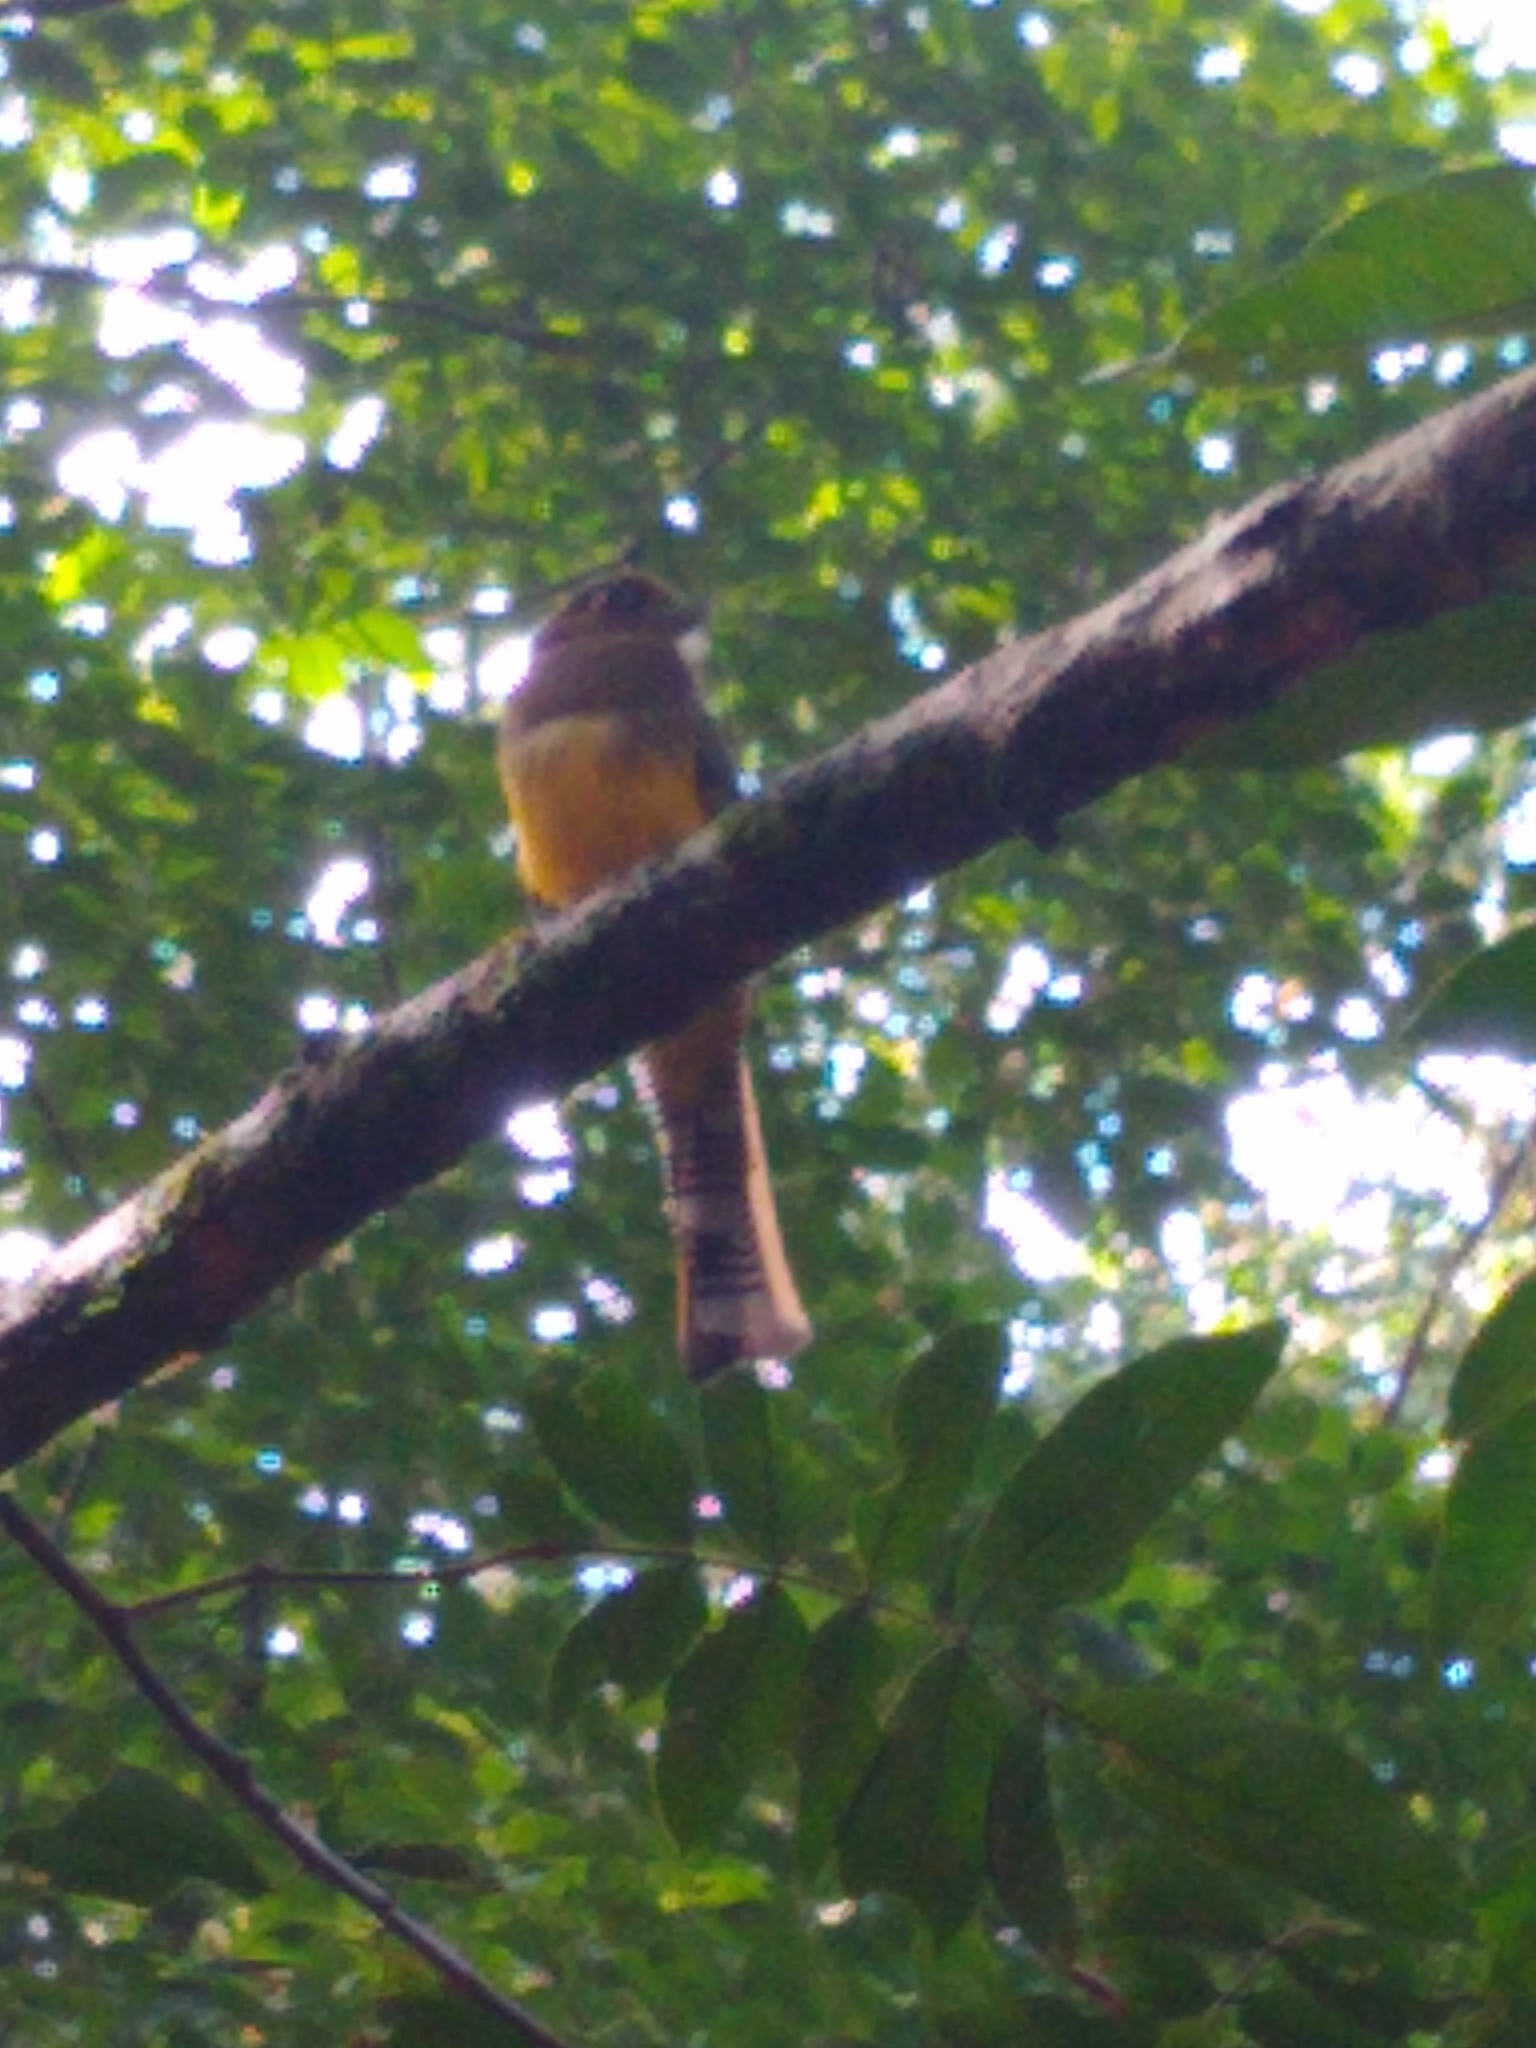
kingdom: Animalia
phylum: Chordata
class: Aves
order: Trogoniformes
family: Trogonidae
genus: Trogon
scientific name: Trogon rufus
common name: Black-throated trogon
